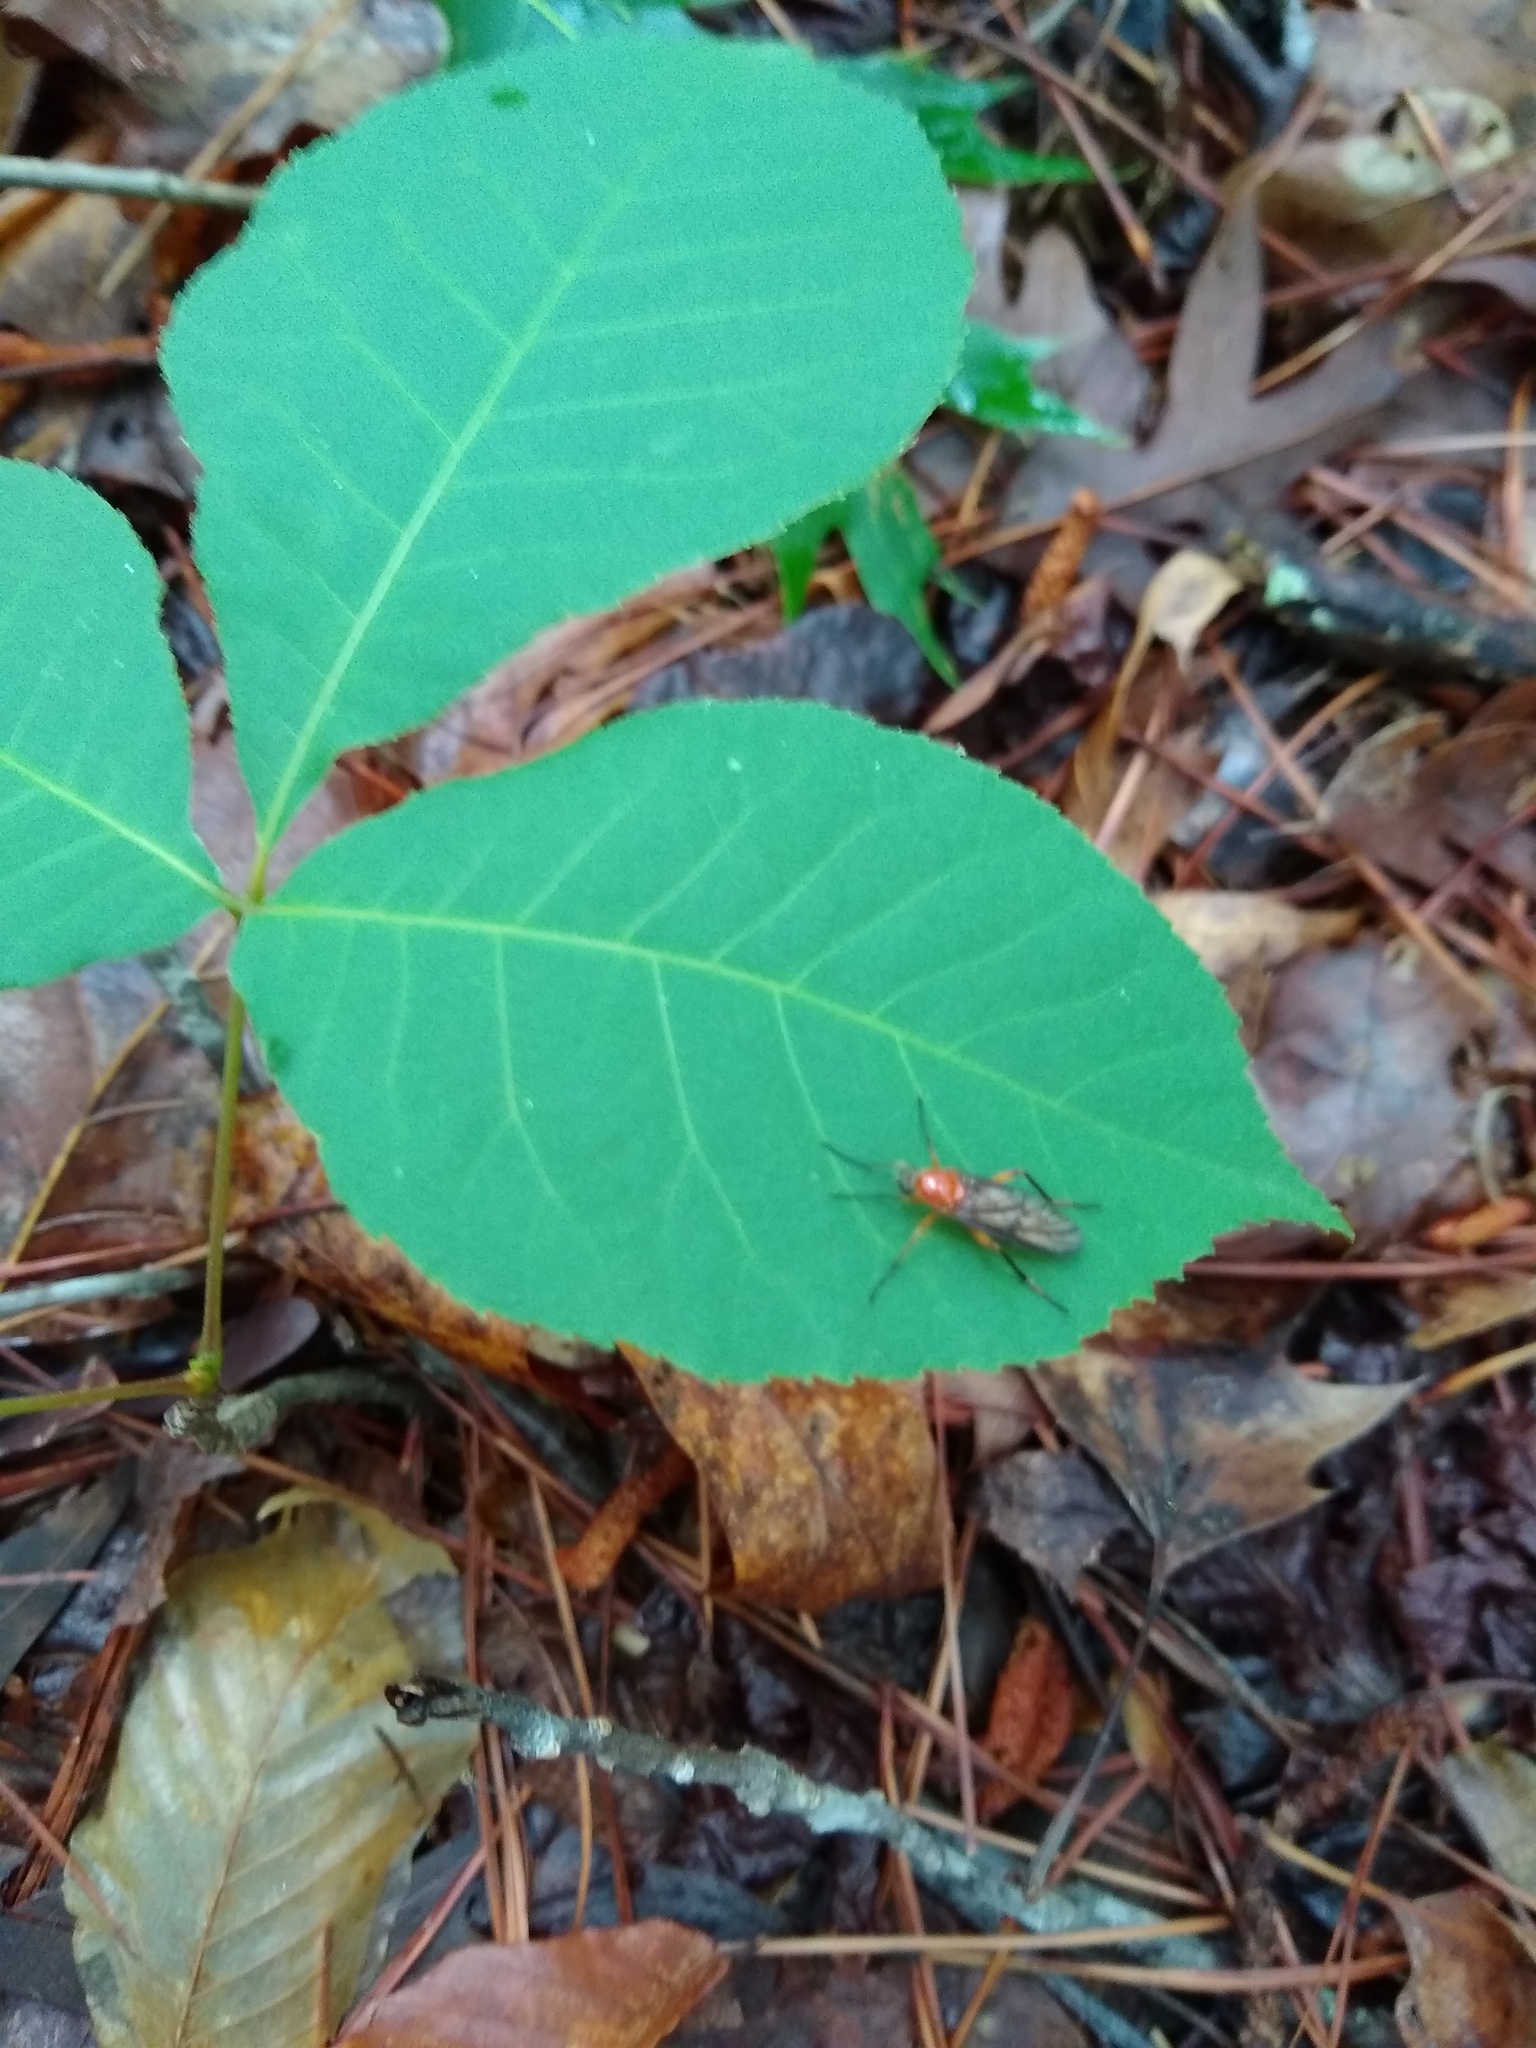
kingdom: Animalia
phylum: Arthropoda
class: Insecta
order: Diptera
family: Xylophagidae
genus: Dialysis
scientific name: Dialysis rufithorax
